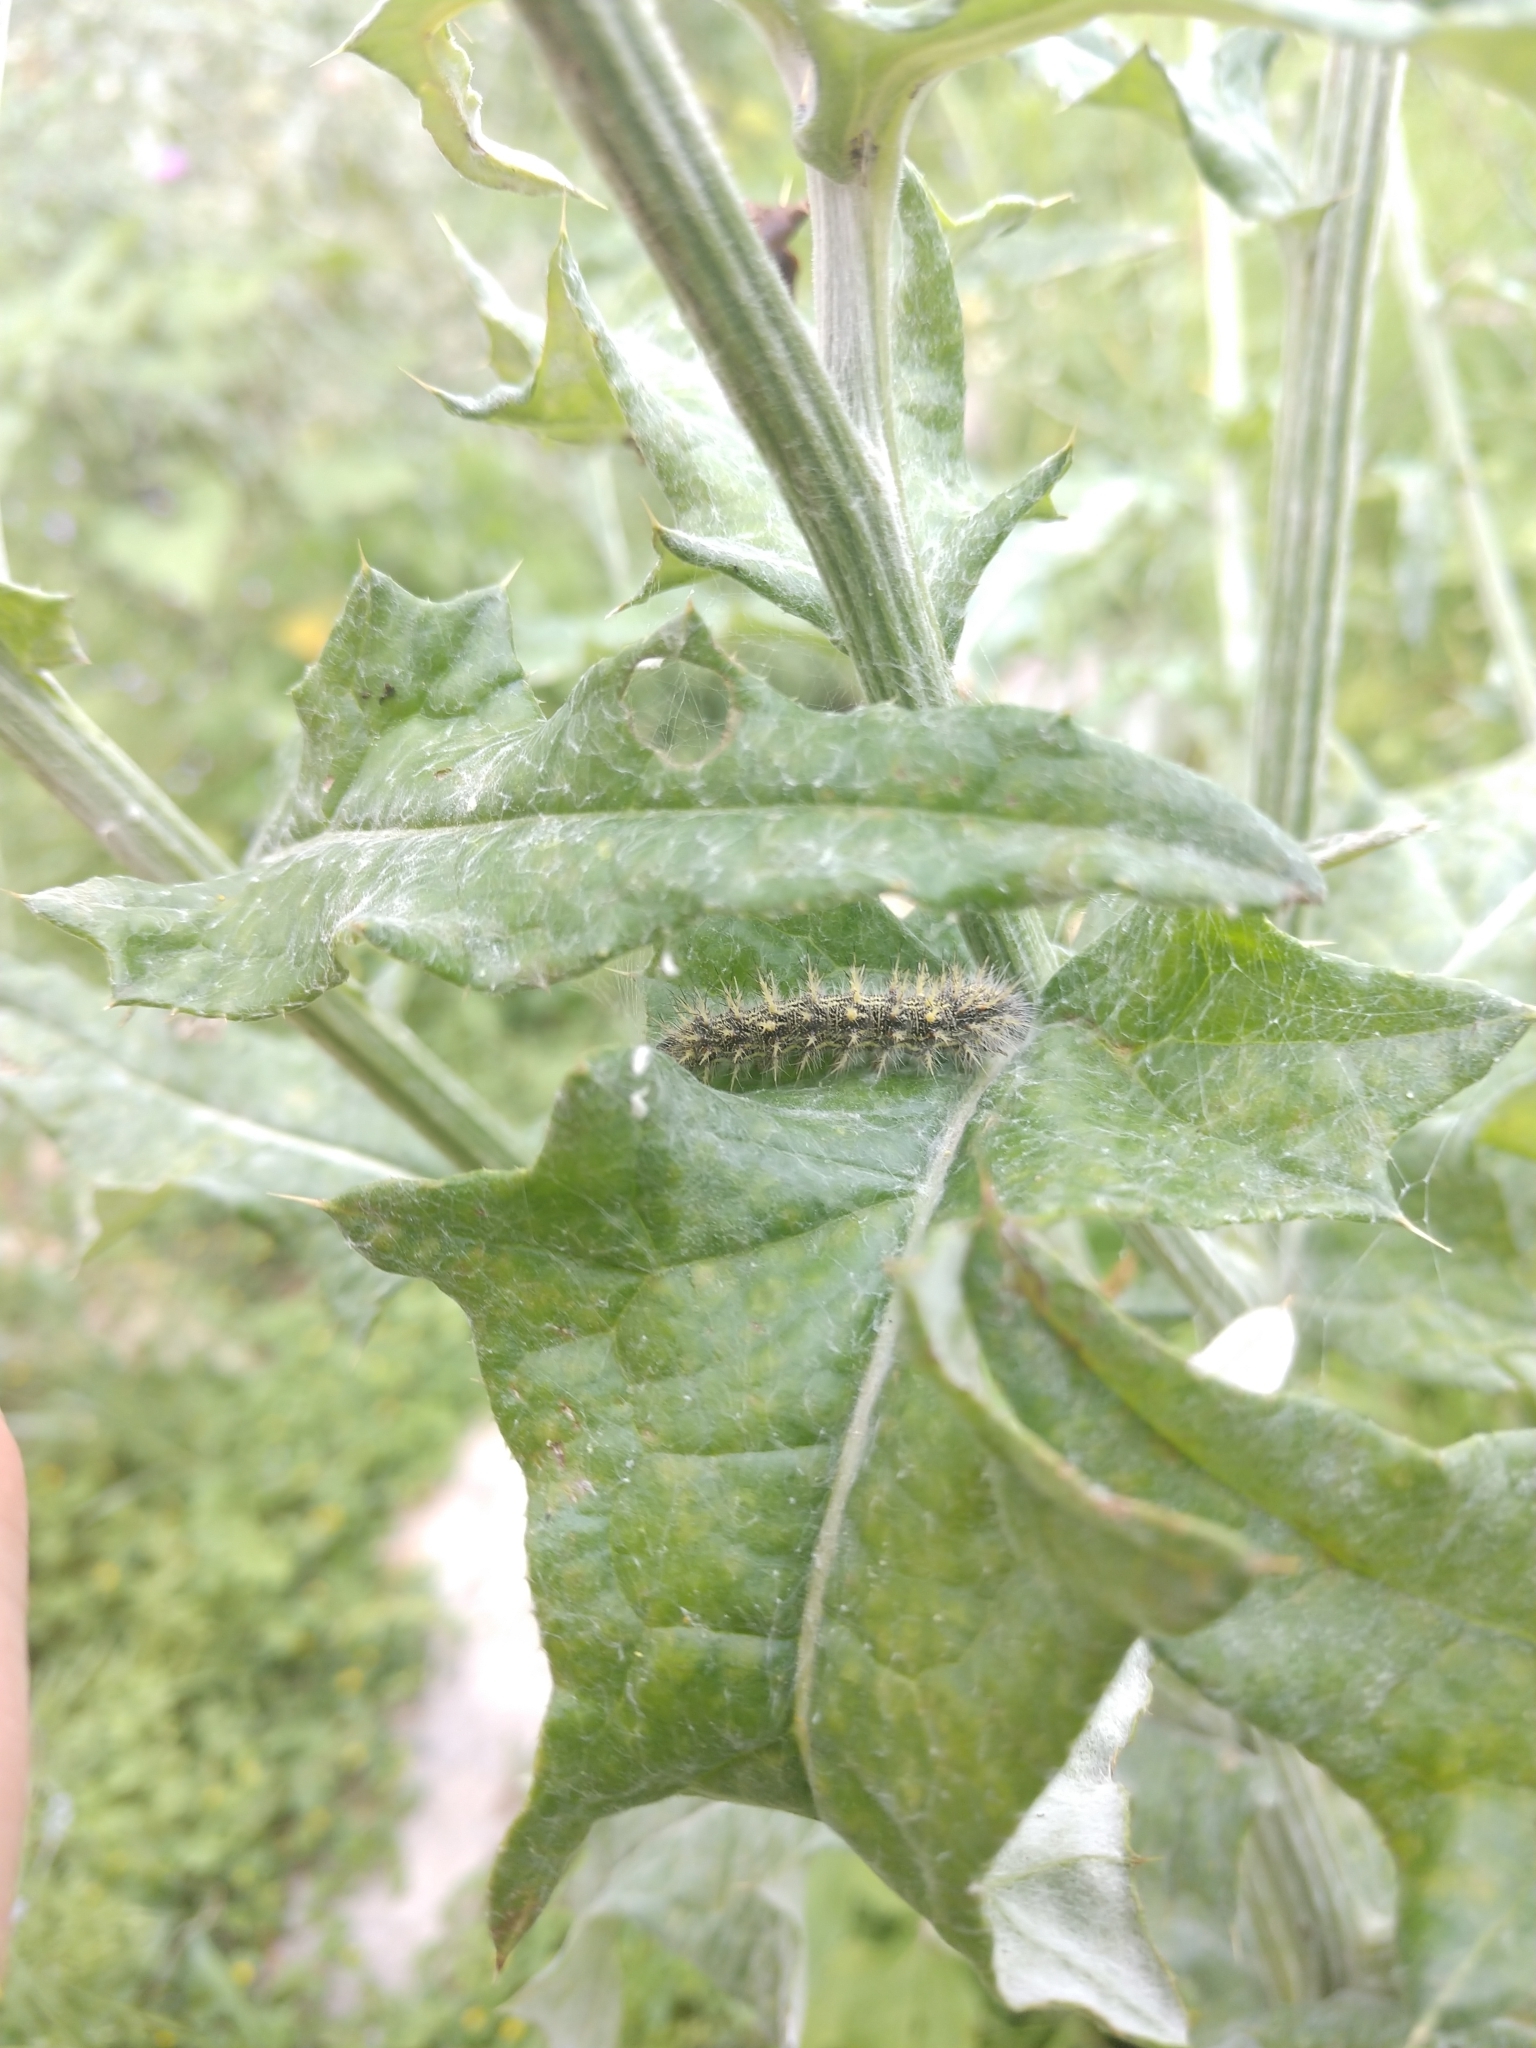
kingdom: Animalia
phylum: Arthropoda
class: Insecta
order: Lepidoptera
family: Nymphalidae
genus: Vanessa
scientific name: Vanessa cardui
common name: Painted lady
